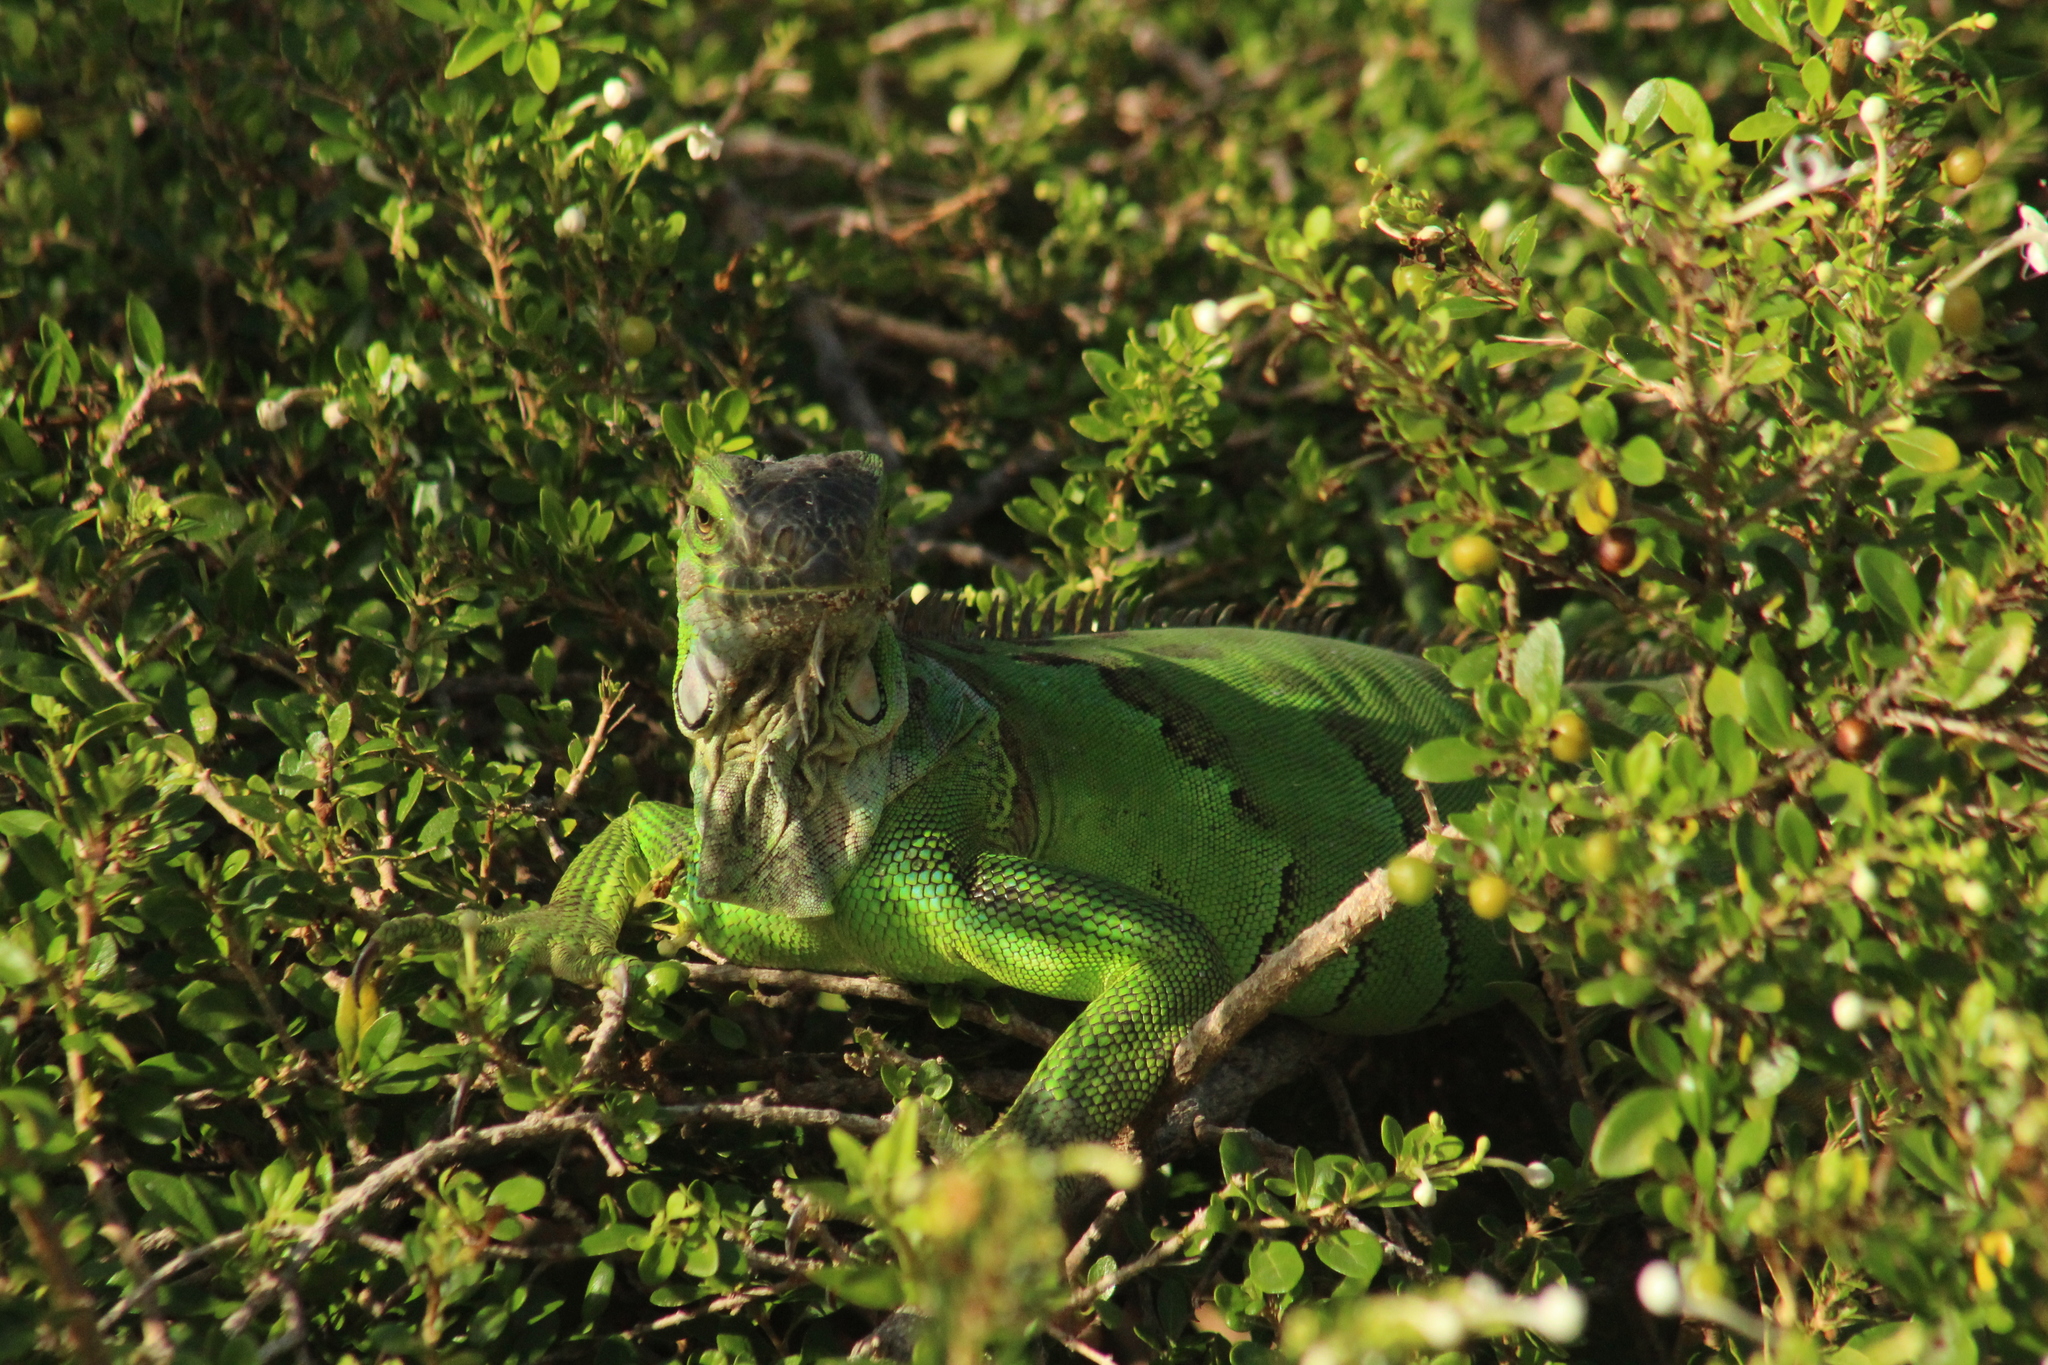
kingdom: Animalia
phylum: Chordata
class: Squamata
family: Iguanidae
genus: Iguana
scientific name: Iguana iguana
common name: Green iguana
